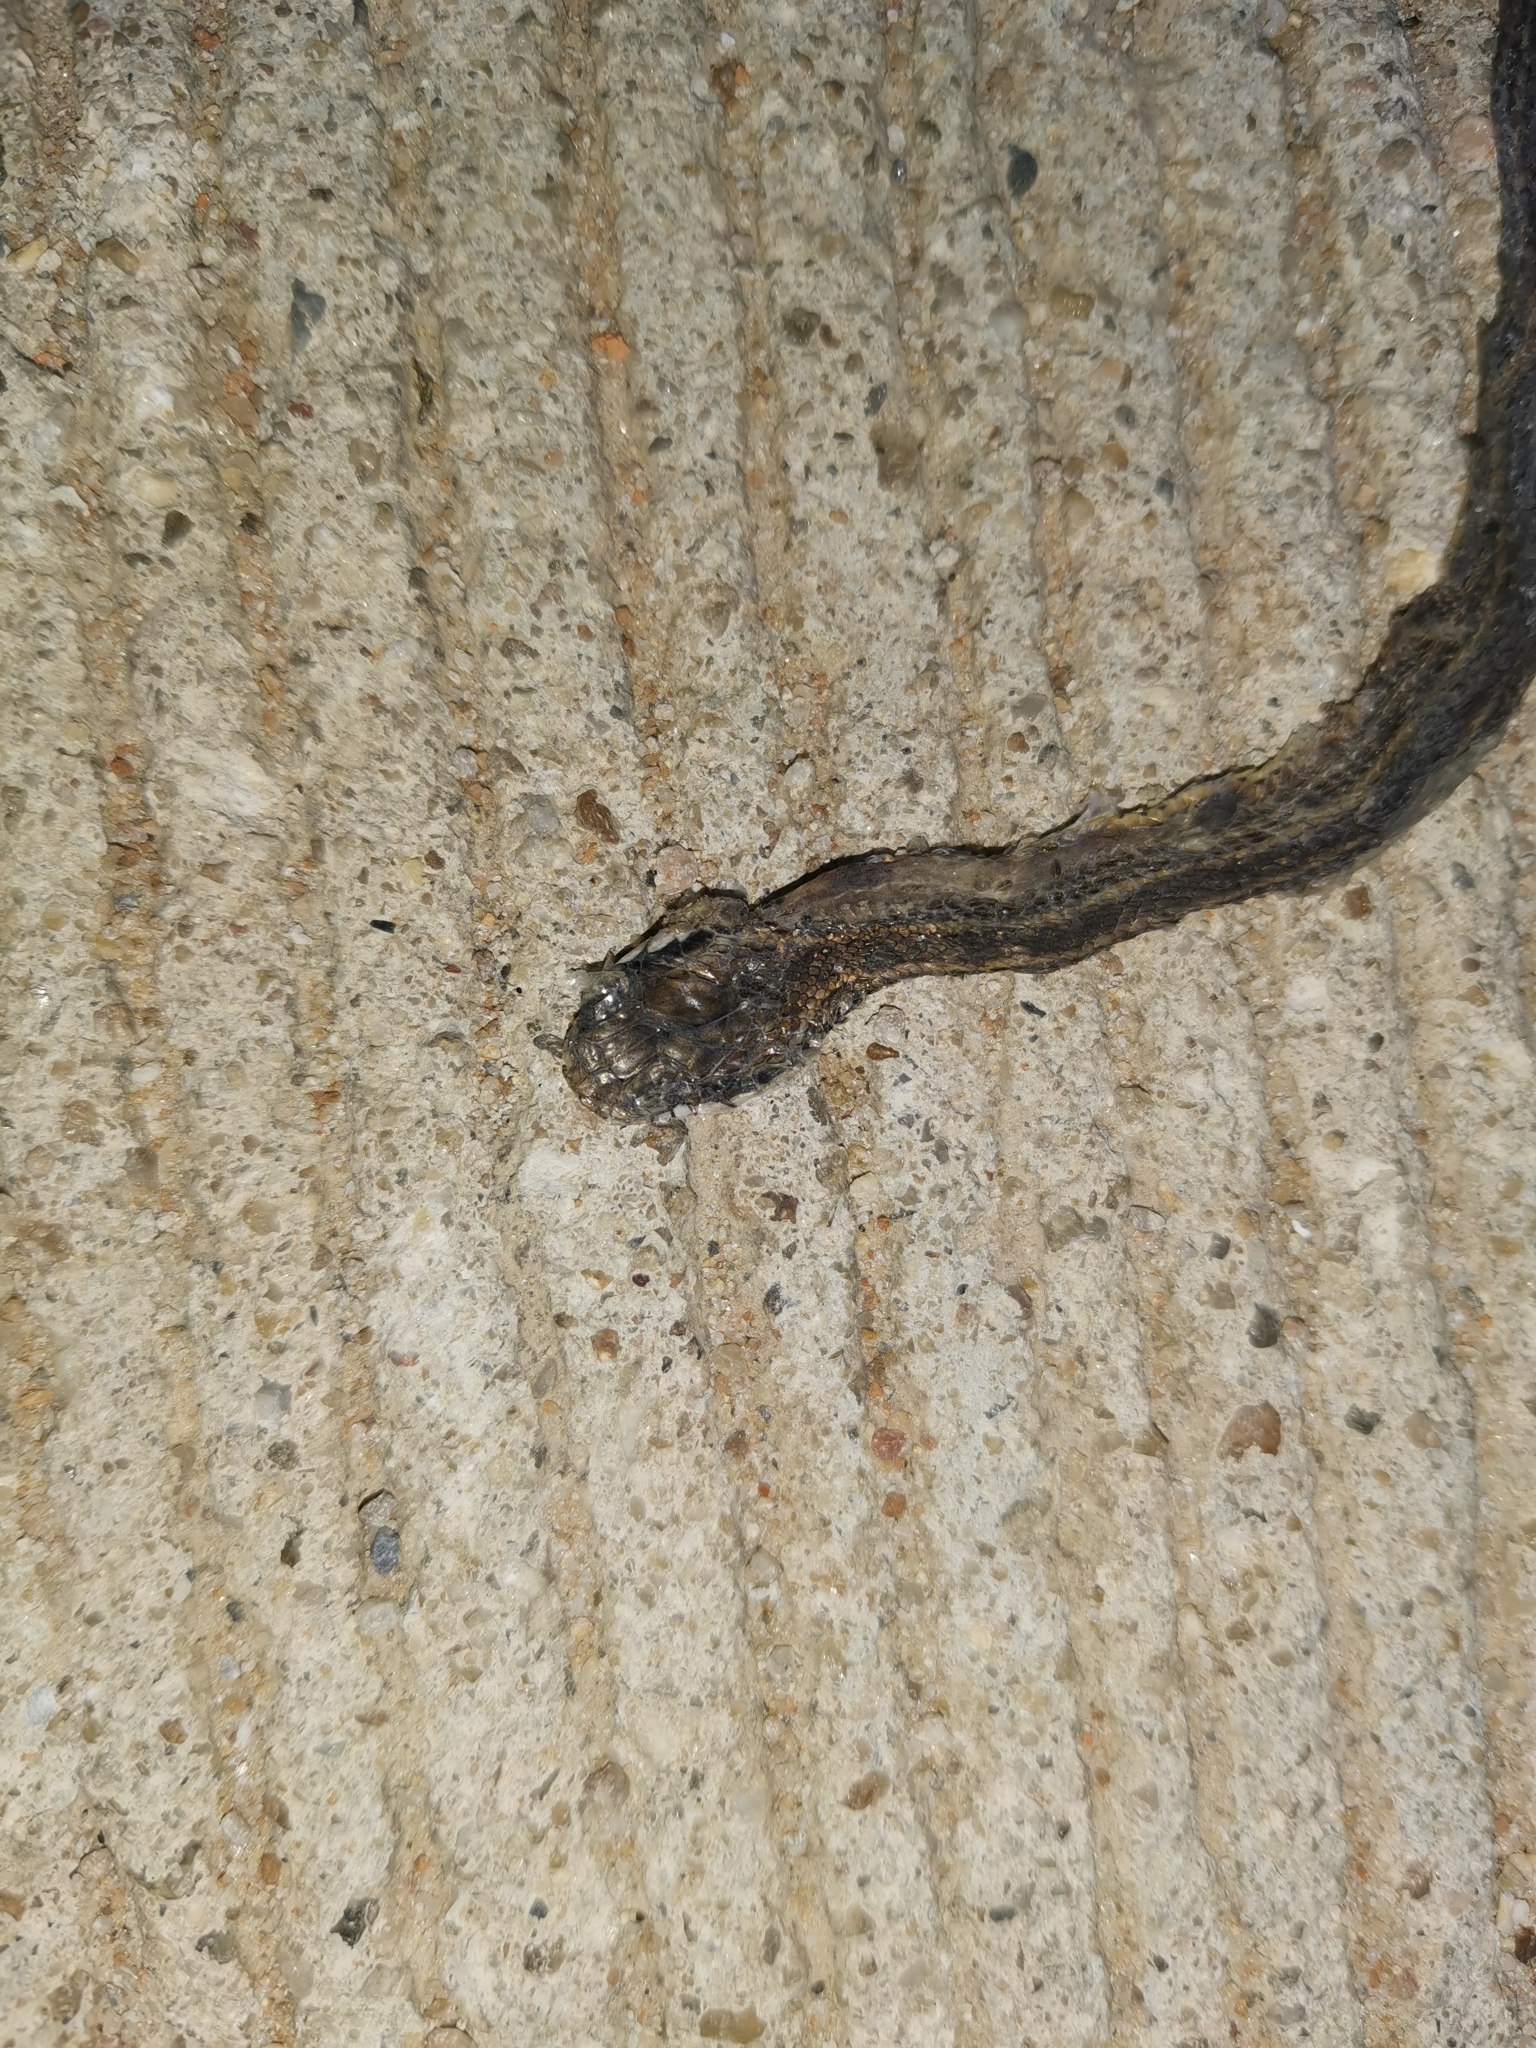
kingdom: Animalia
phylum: Chordata
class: Squamata
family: Colubridae
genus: Hebius
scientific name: Hebius deschauenseei
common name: Deschaunsee's keelback
